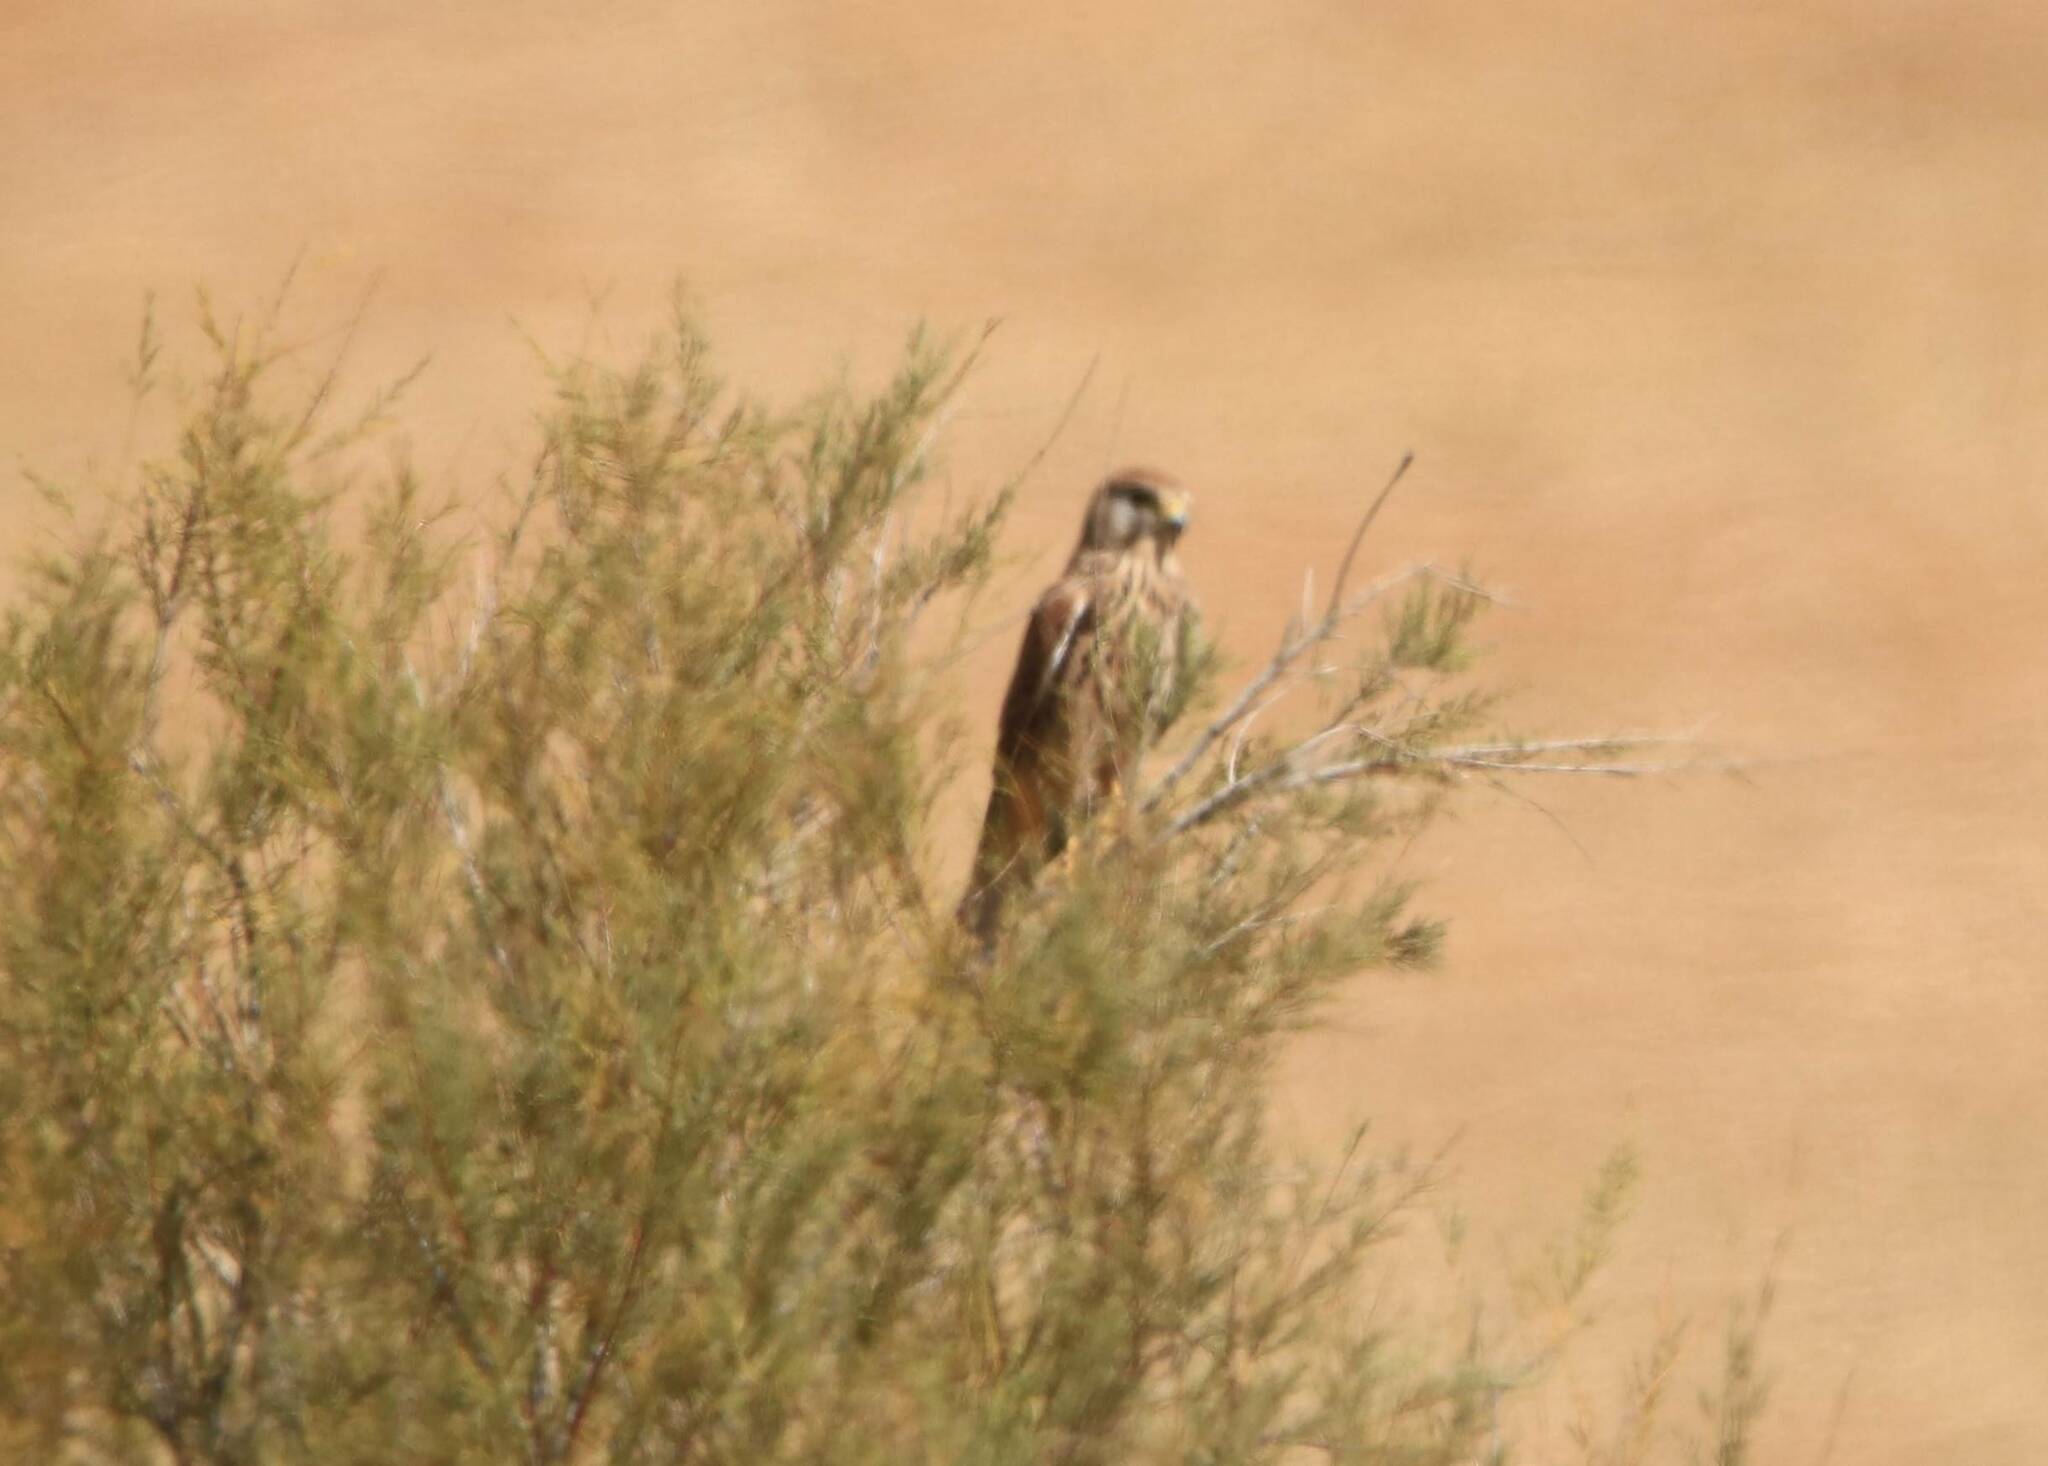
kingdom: Animalia
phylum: Chordata
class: Aves
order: Falconiformes
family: Falconidae
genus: Falco
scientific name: Falco tinnunculus
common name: Common kestrel
